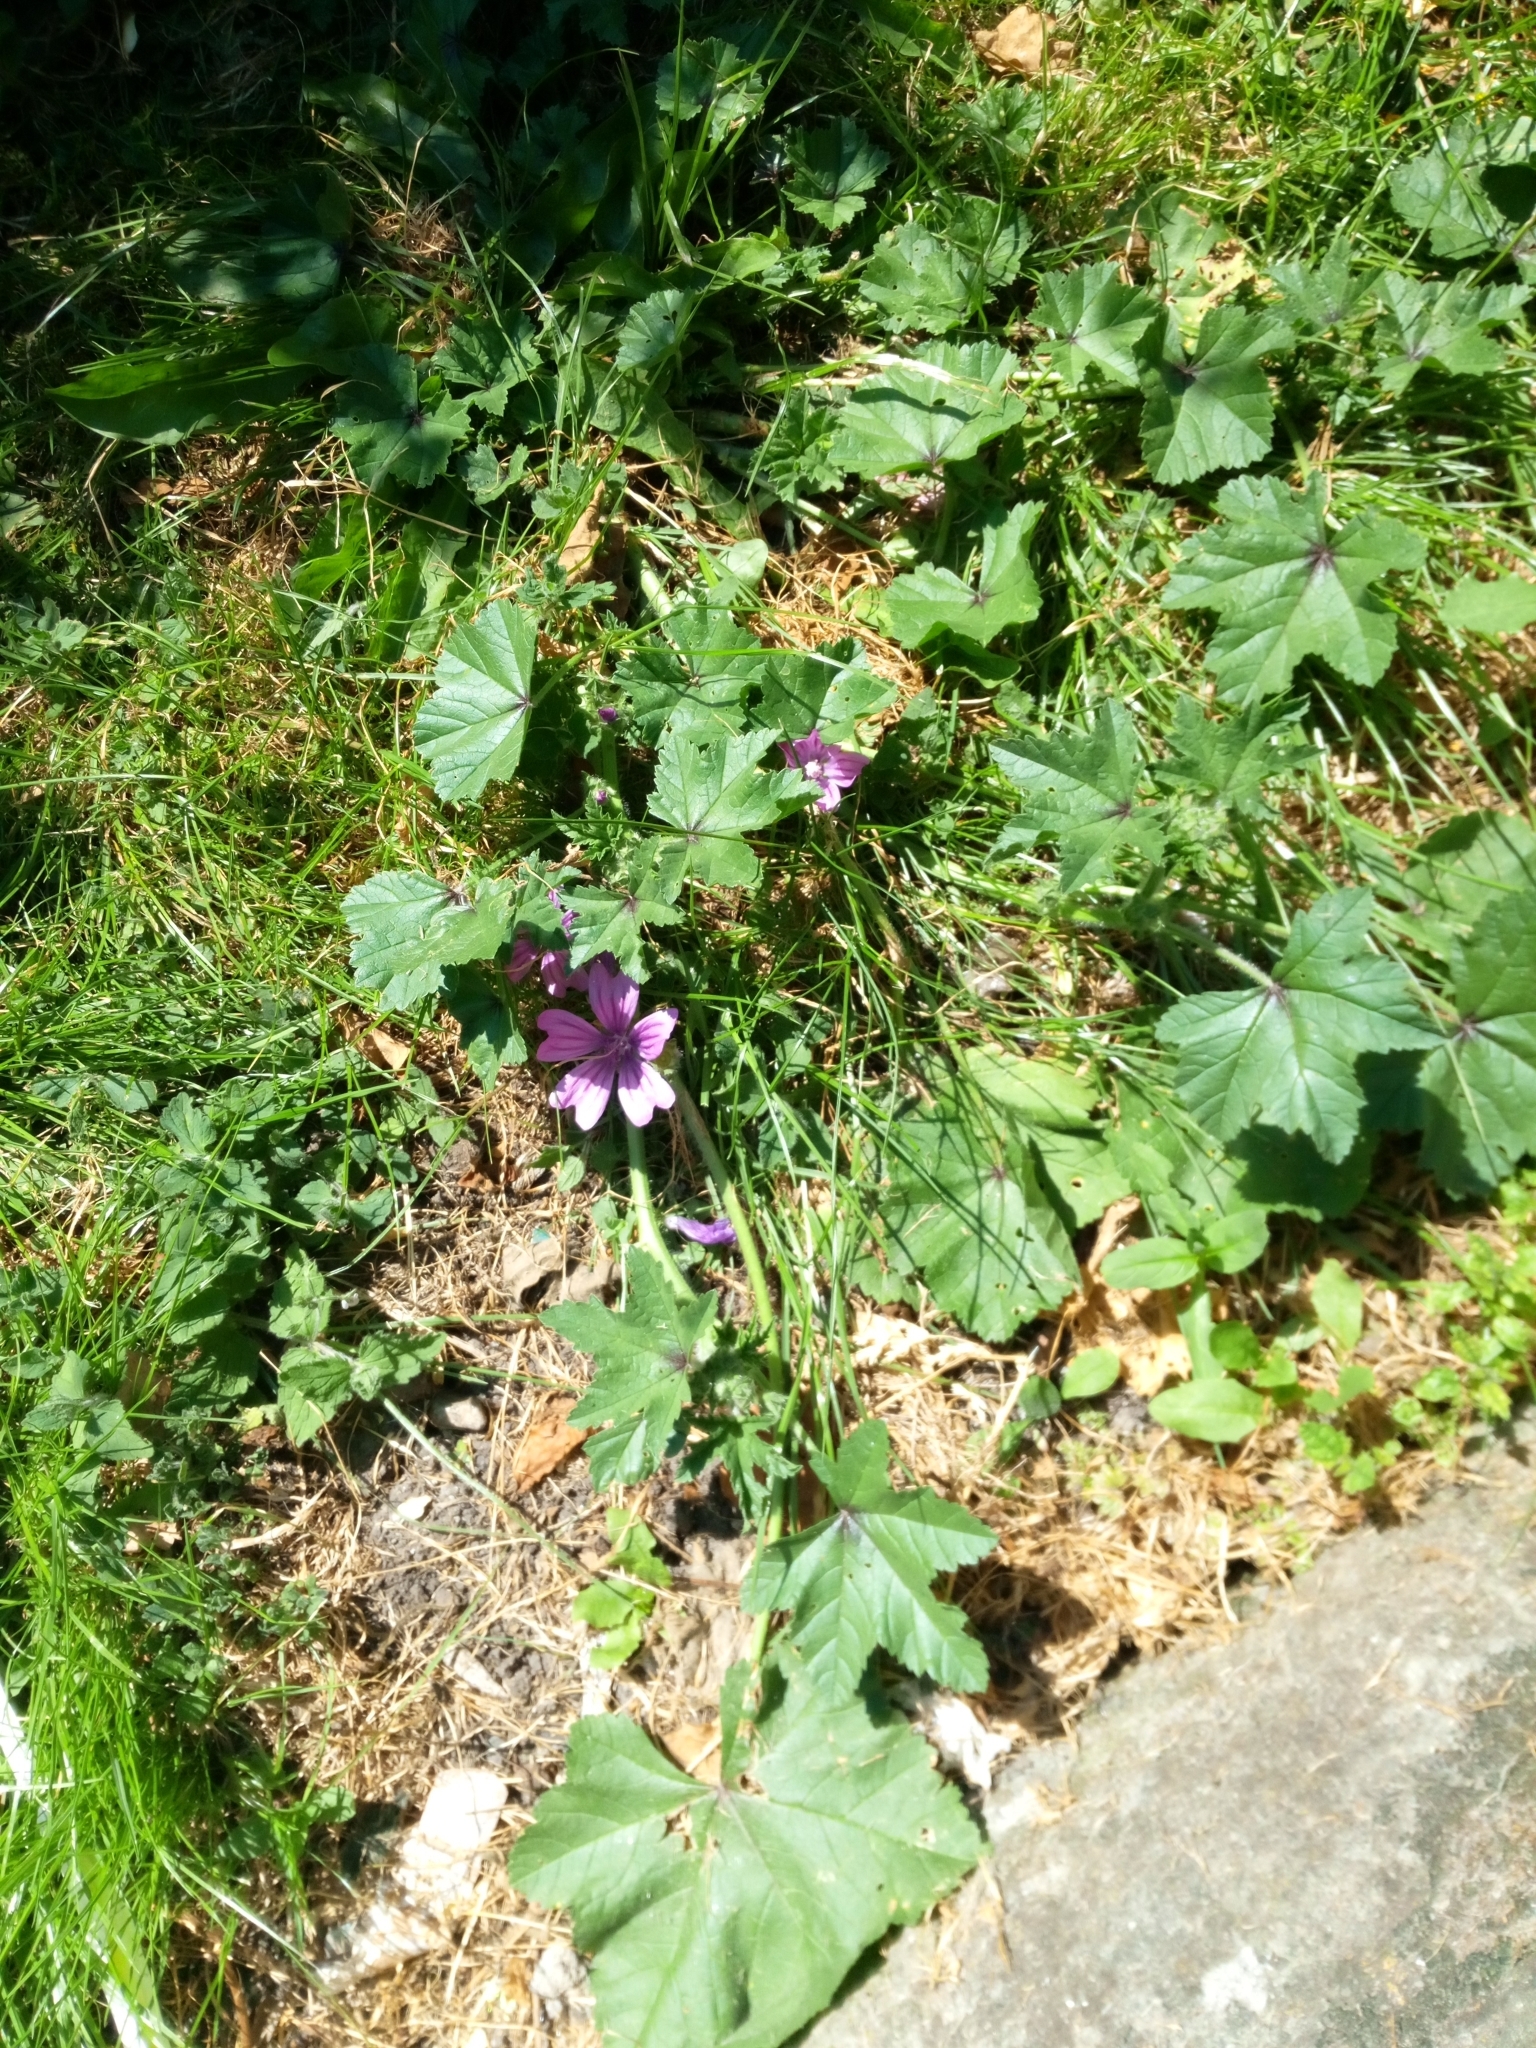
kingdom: Plantae
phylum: Tracheophyta
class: Magnoliopsida
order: Malvales
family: Malvaceae
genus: Malva
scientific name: Malva sylvestris
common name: Common mallow
